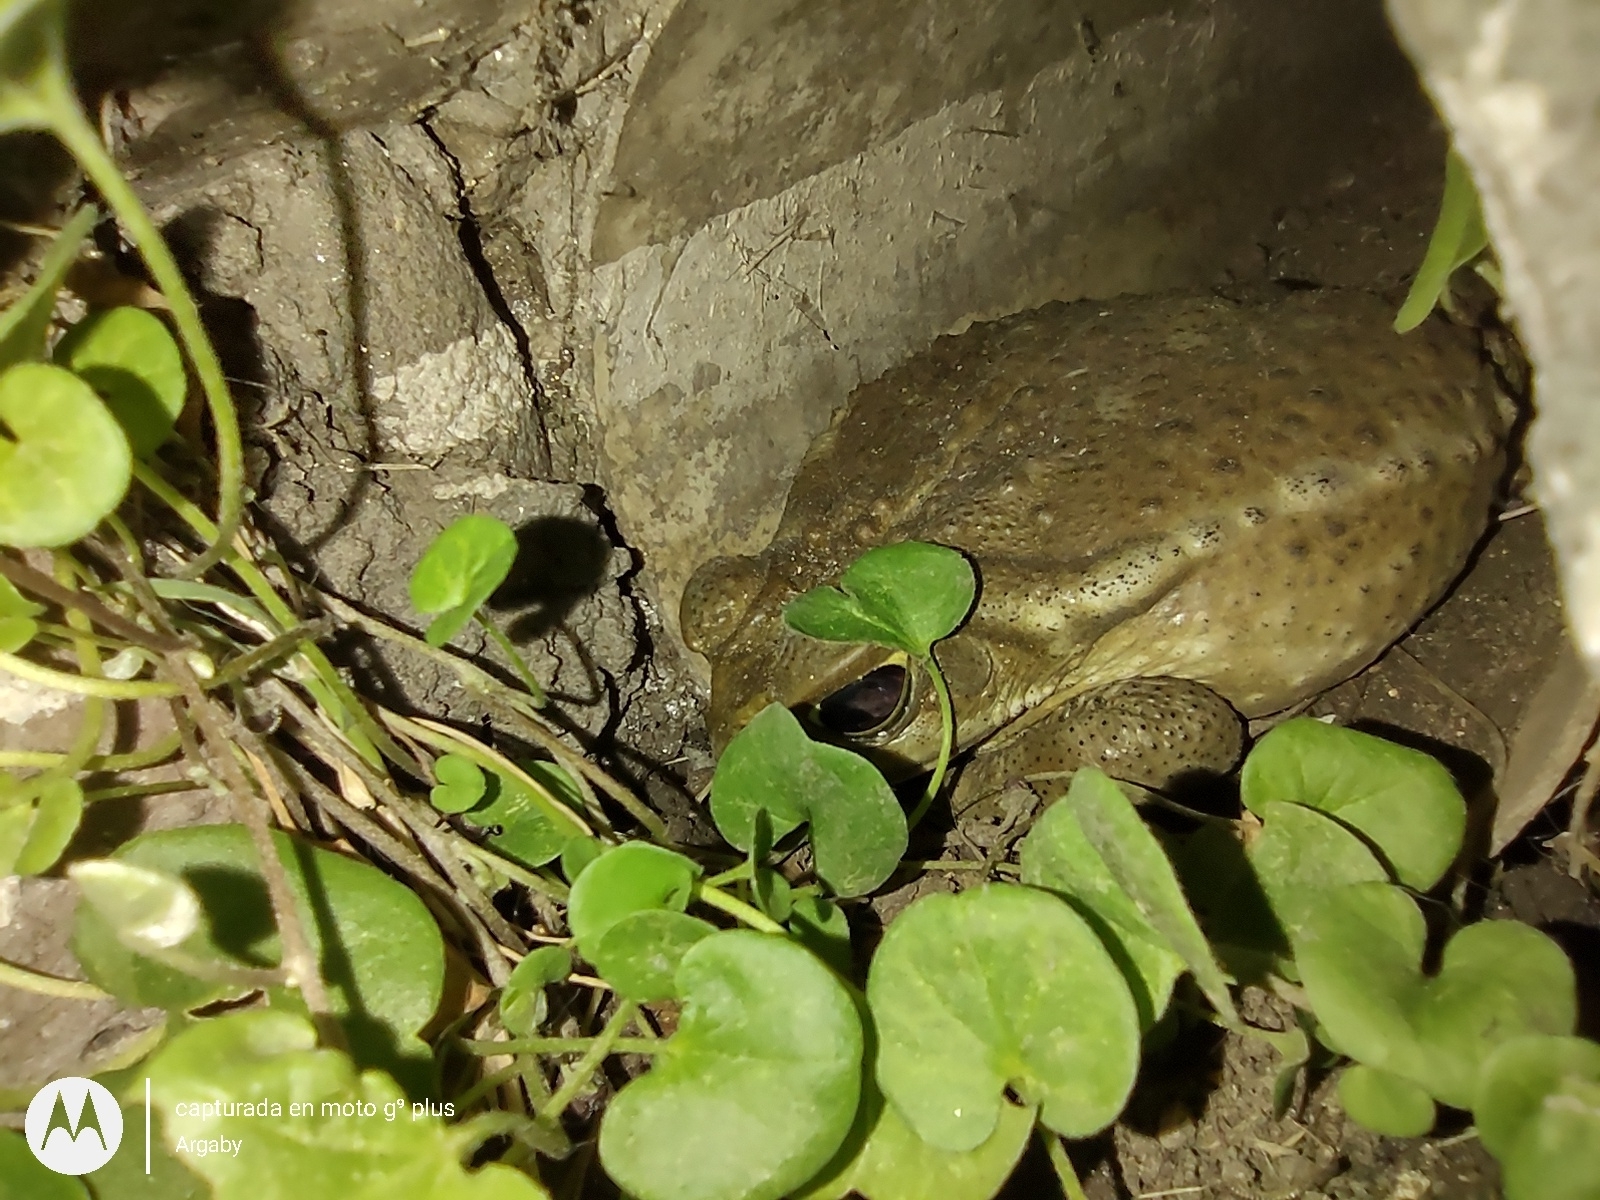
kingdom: Animalia
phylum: Chordata
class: Amphibia
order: Anura
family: Bufonidae
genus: Rhinella
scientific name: Rhinella arenarum
